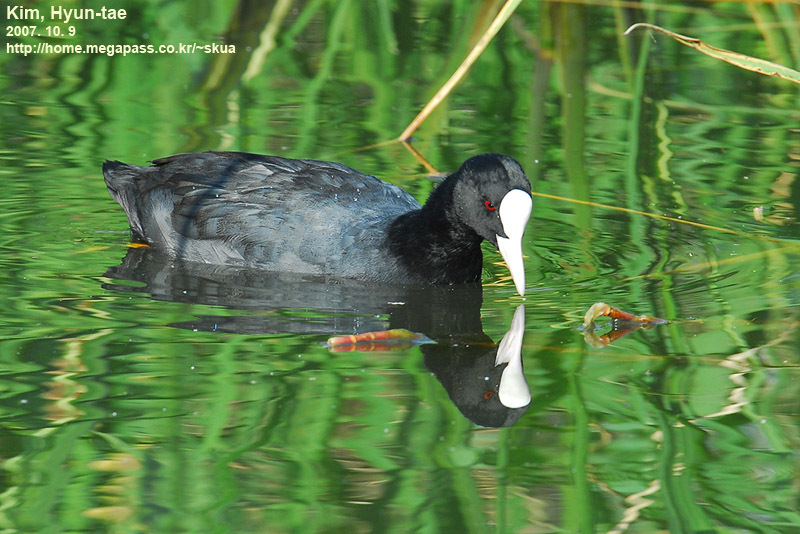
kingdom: Animalia
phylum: Chordata
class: Aves
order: Gruiformes
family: Rallidae
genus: Fulica
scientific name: Fulica atra
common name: Eurasian coot
